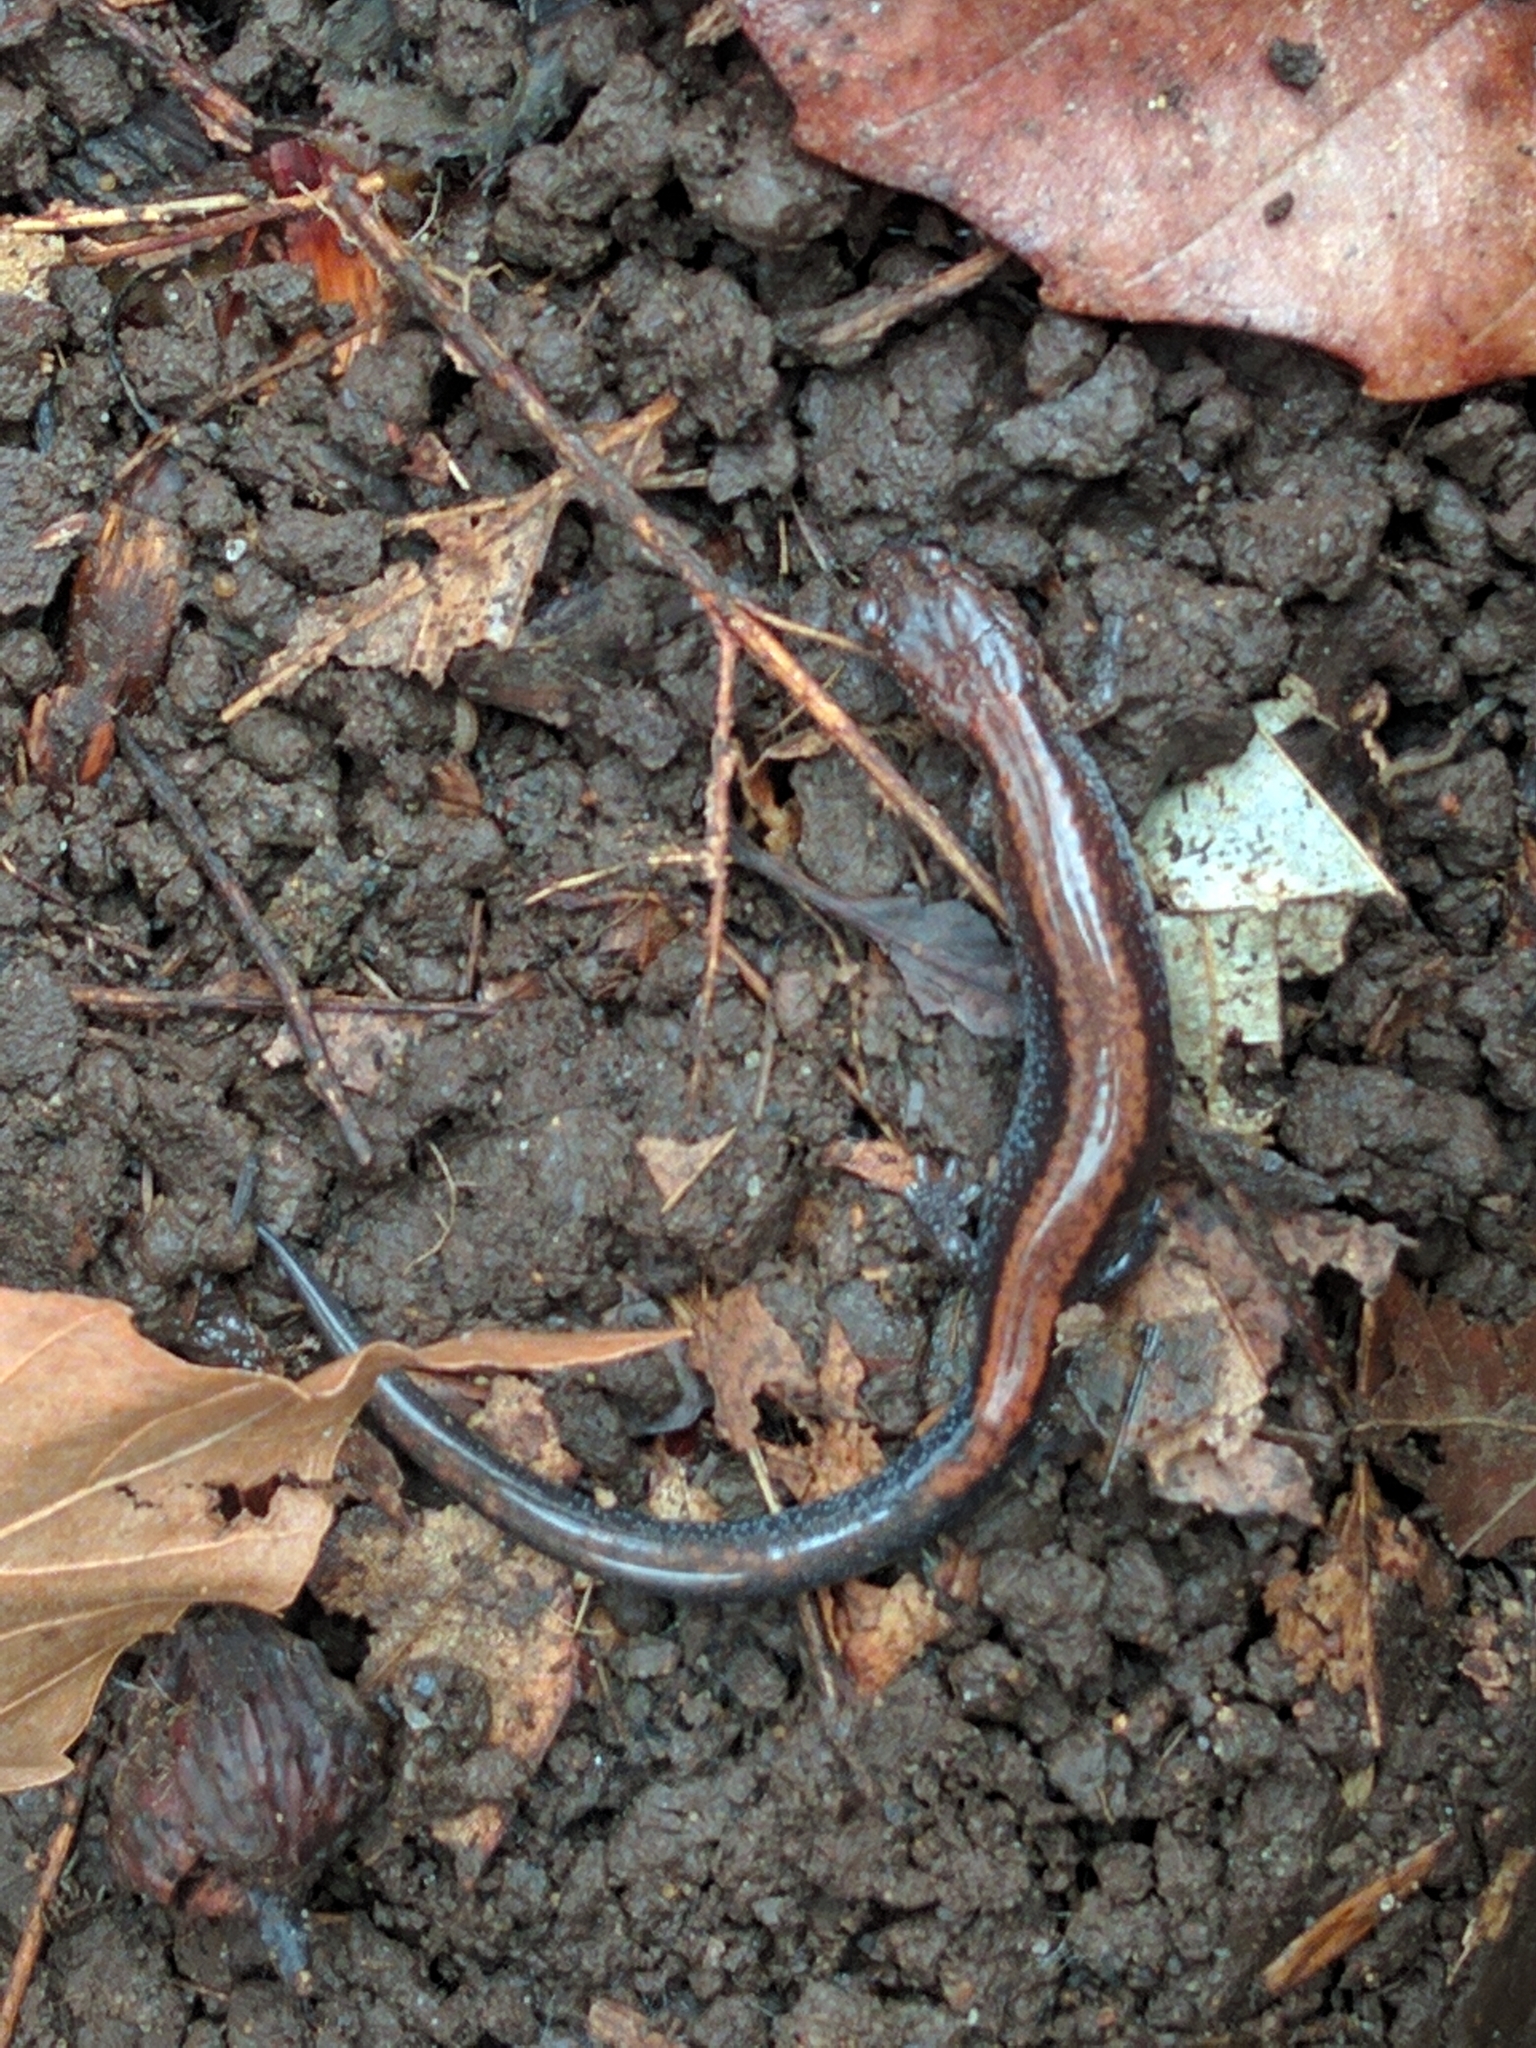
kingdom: Animalia
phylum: Chordata
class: Amphibia
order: Caudata
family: Plethodontidae
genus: Plethodon
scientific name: Plethodon cinereus
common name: Redback salamander
